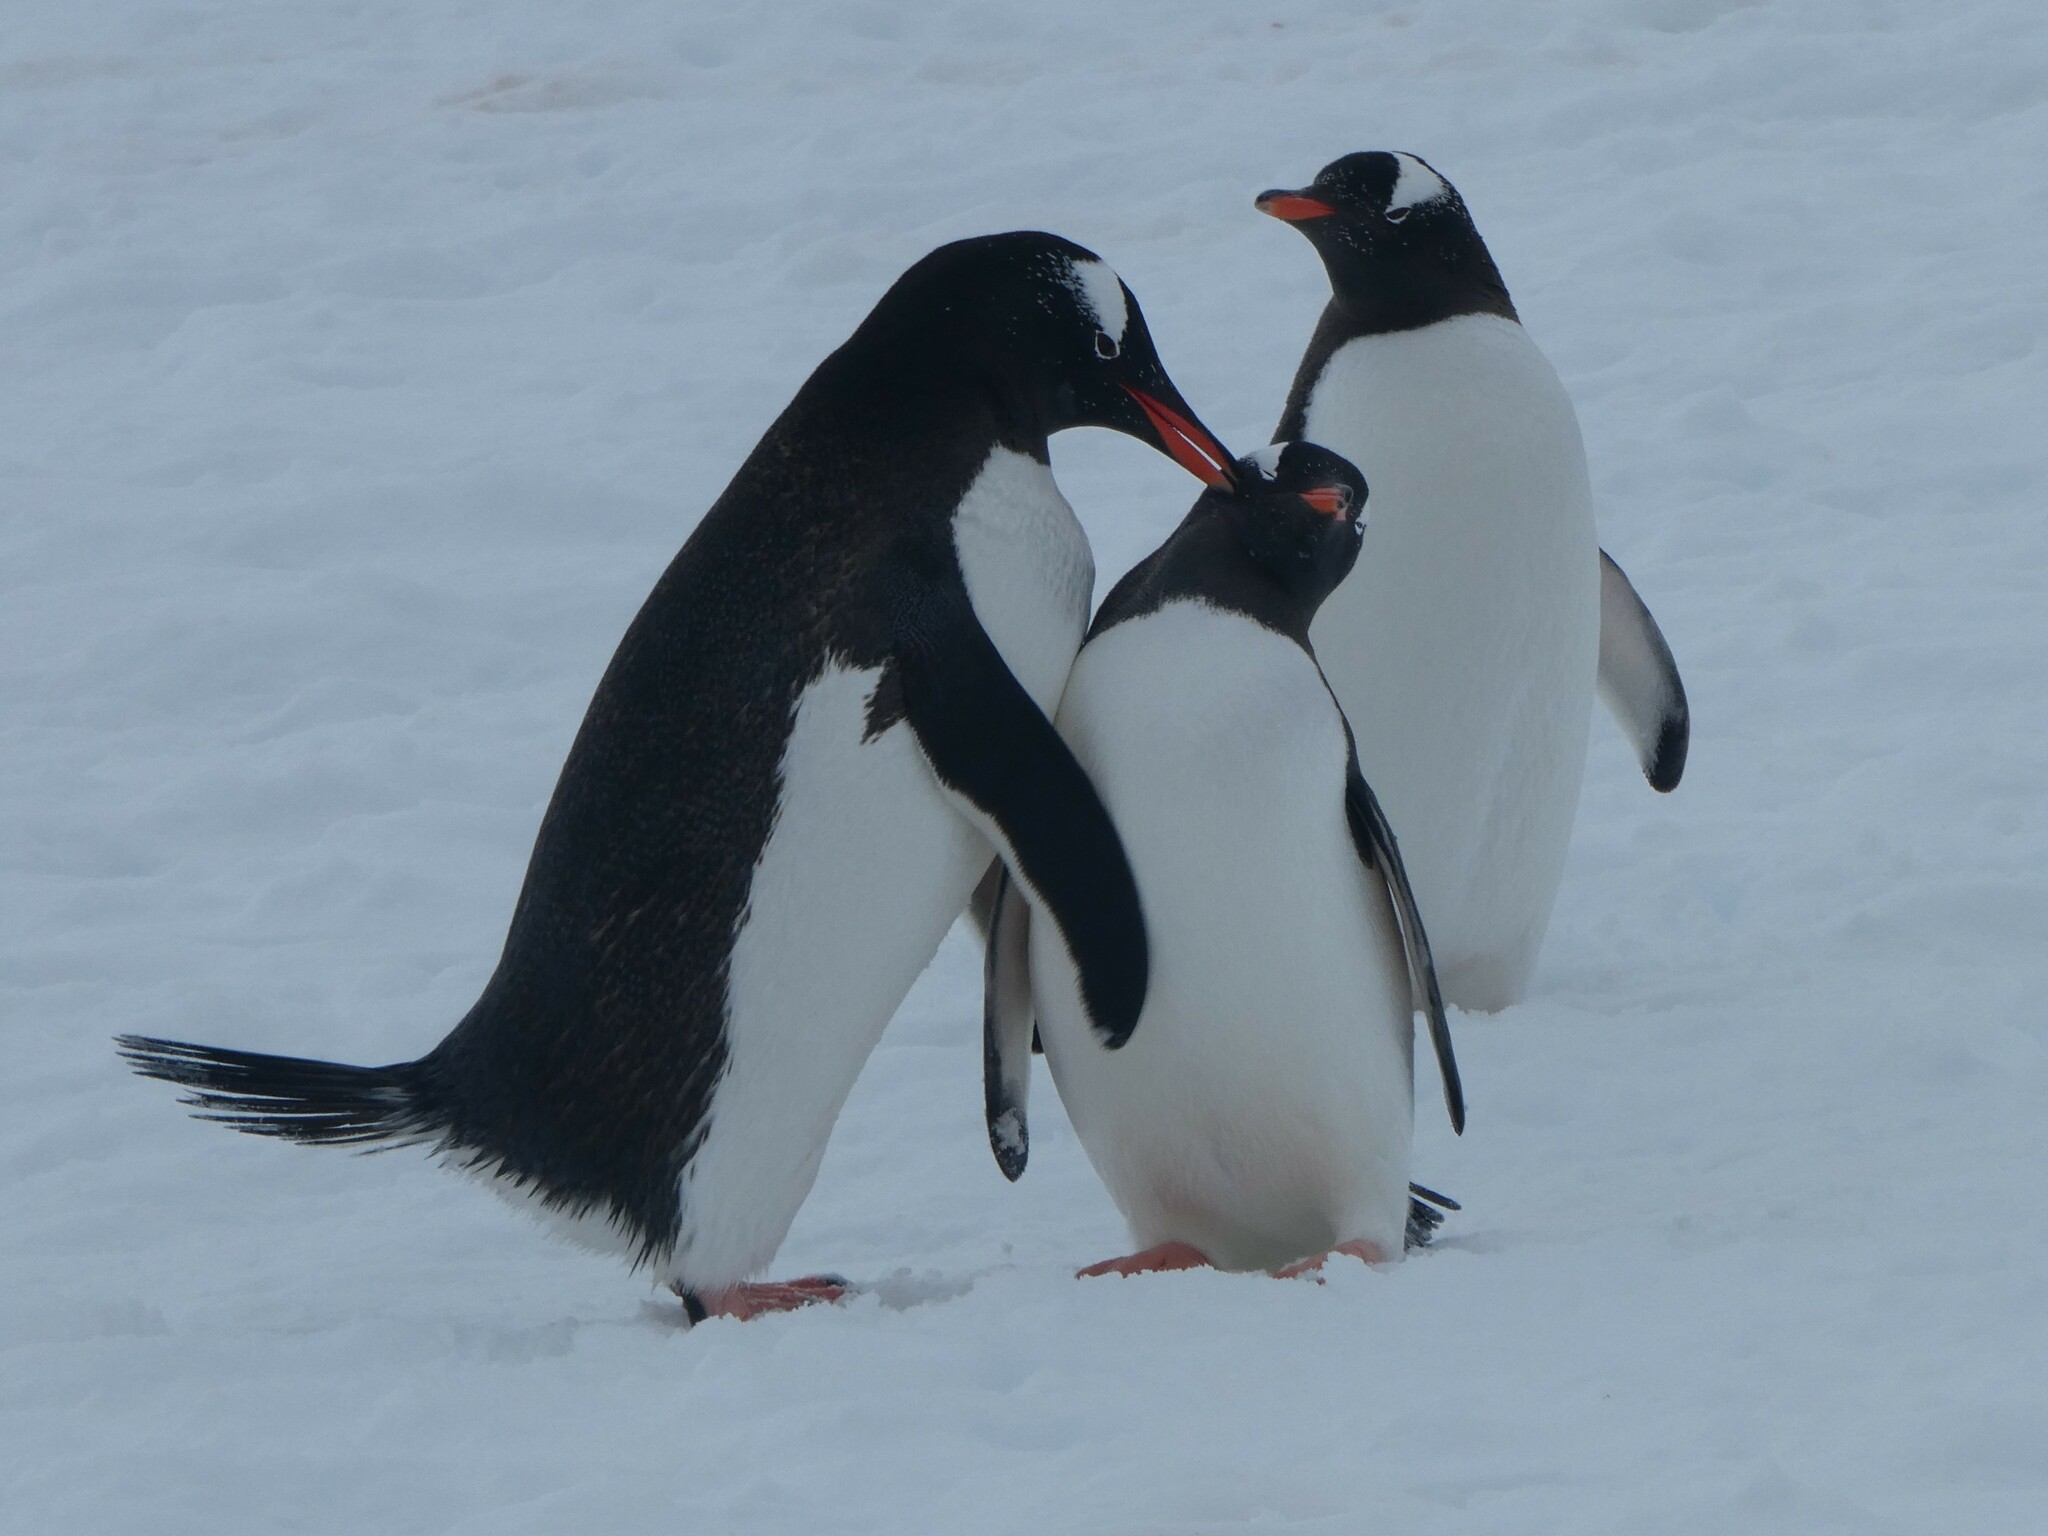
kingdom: Animalia
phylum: Chordata
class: Aves
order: Sphenisciformes
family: Spheniscidae
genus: Pygoscelis
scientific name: Pygoscelis papua
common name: Gentoo penguin
